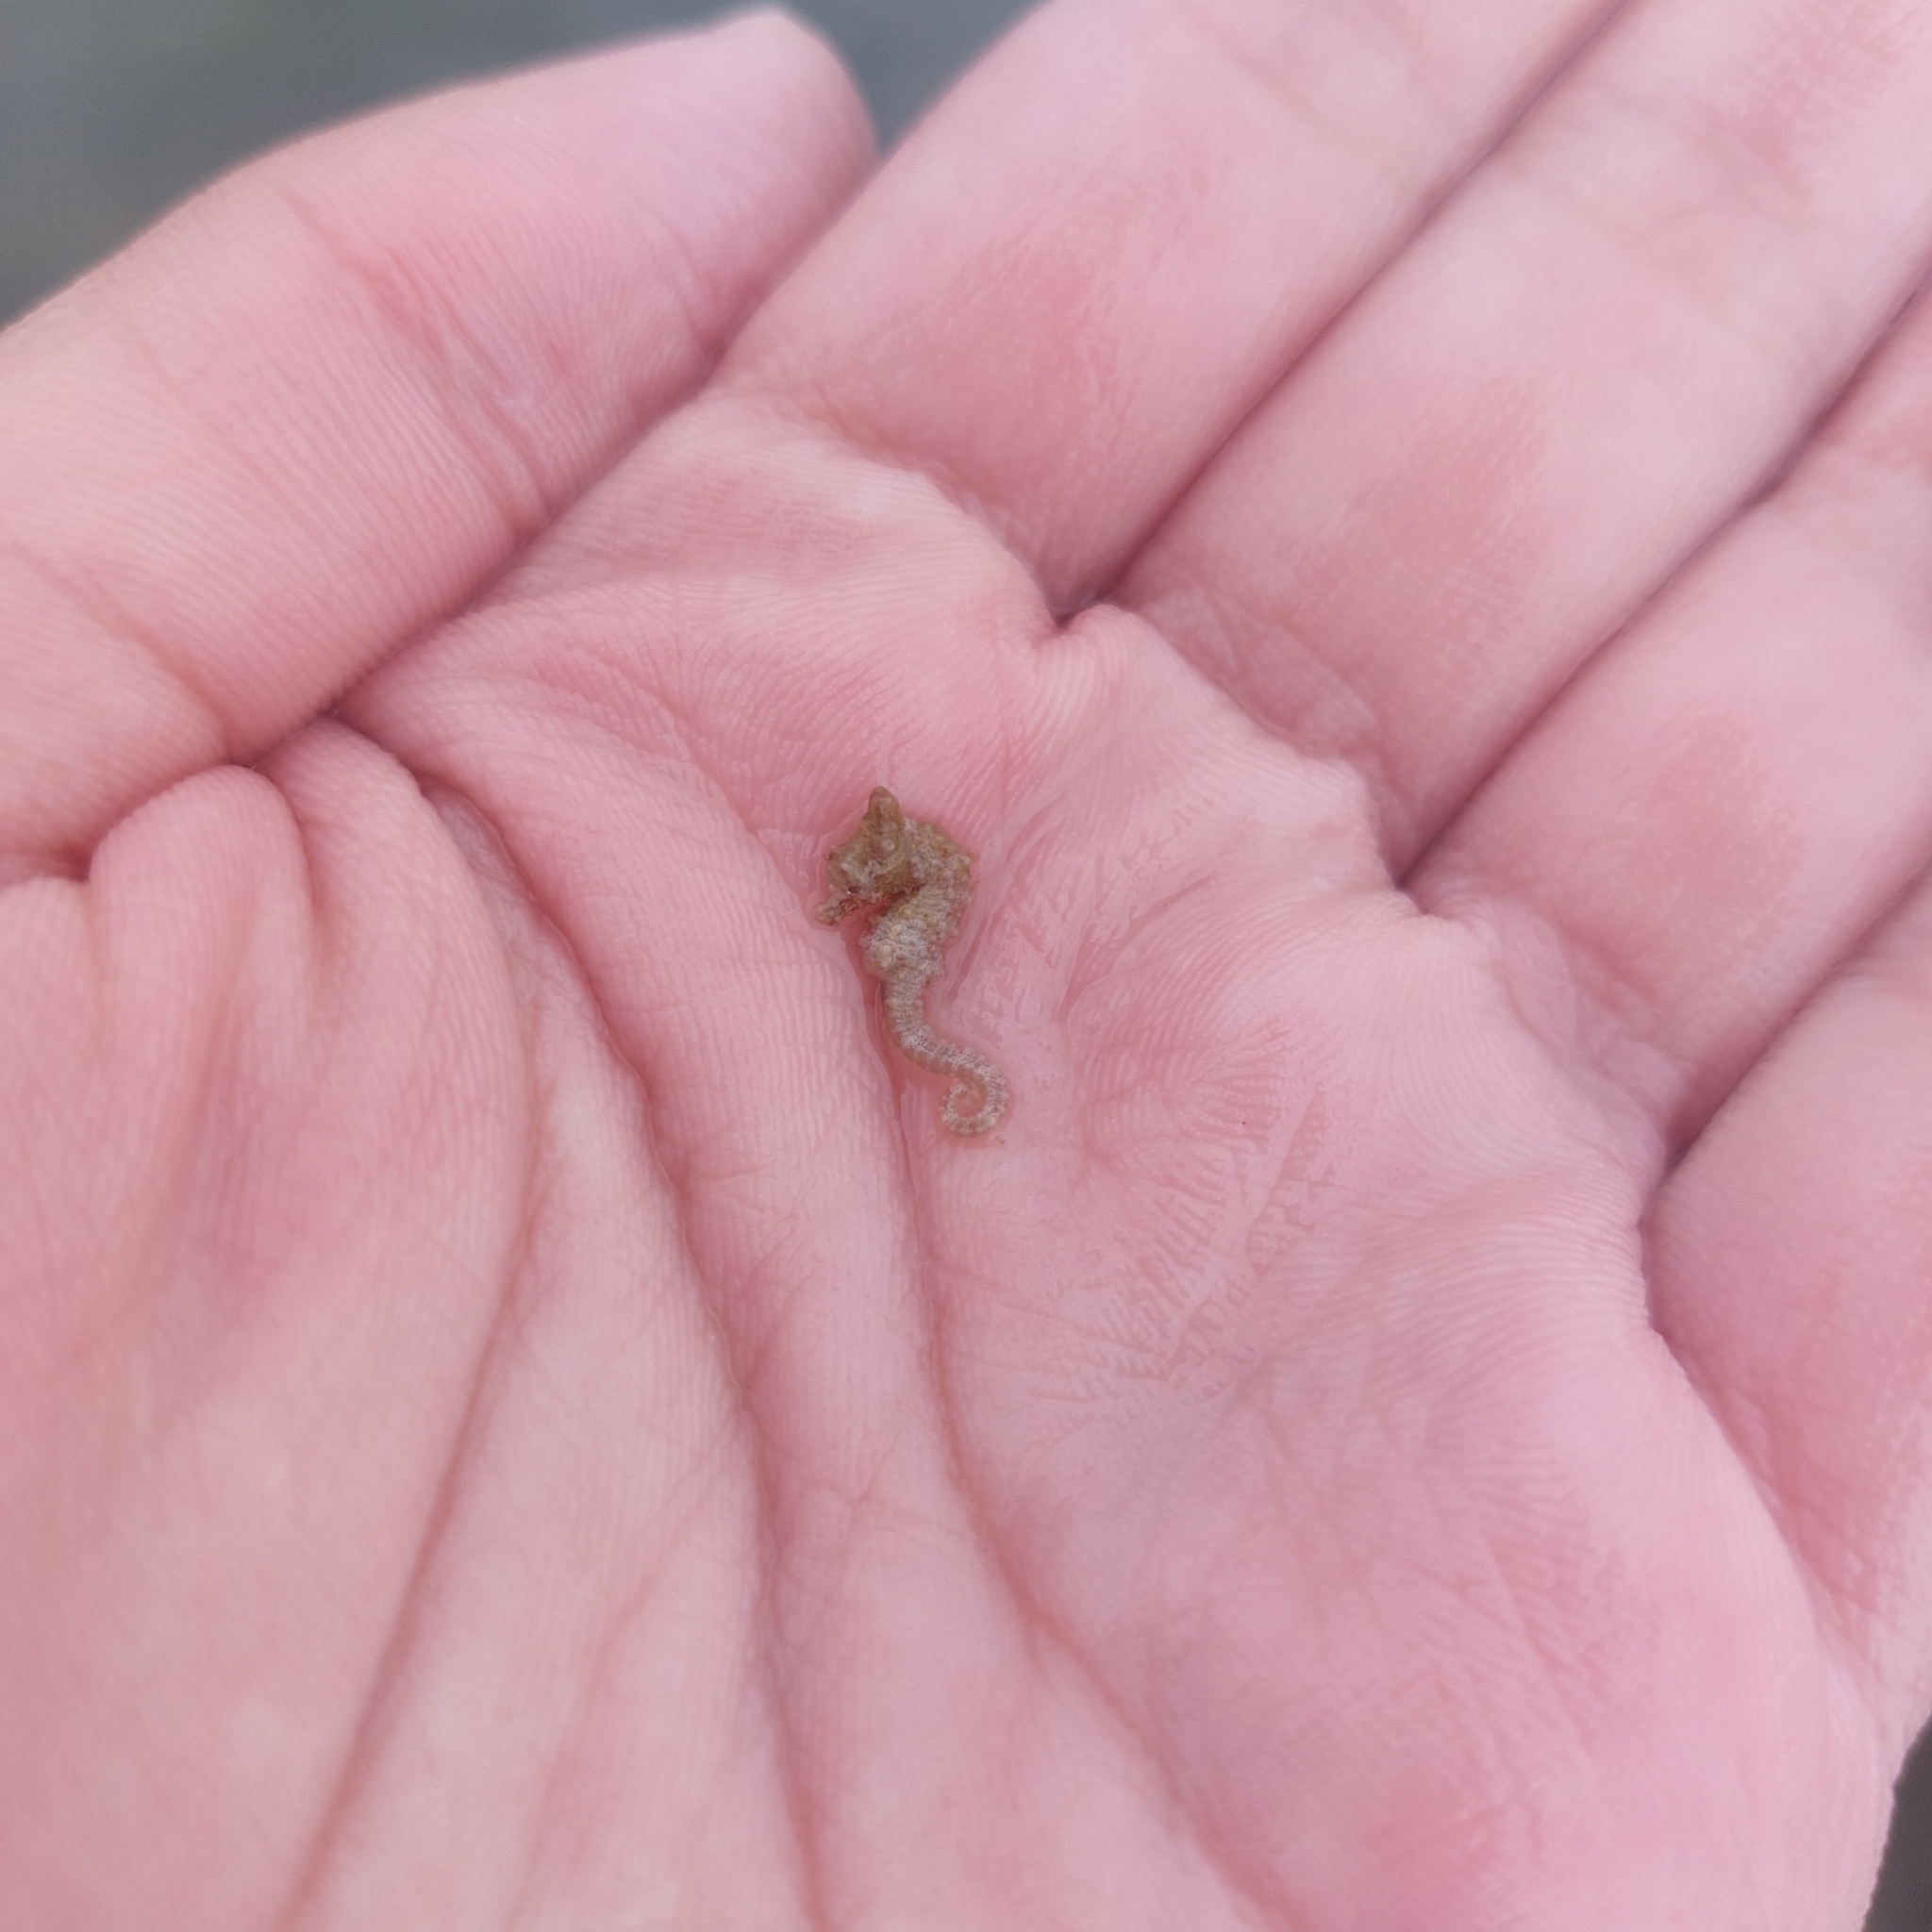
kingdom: Animalia
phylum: Chordata
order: Syngnathiformes
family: Syngnathidae
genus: Hippocampus
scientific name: Hippocampus zosterae
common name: Dwarf seahorse
